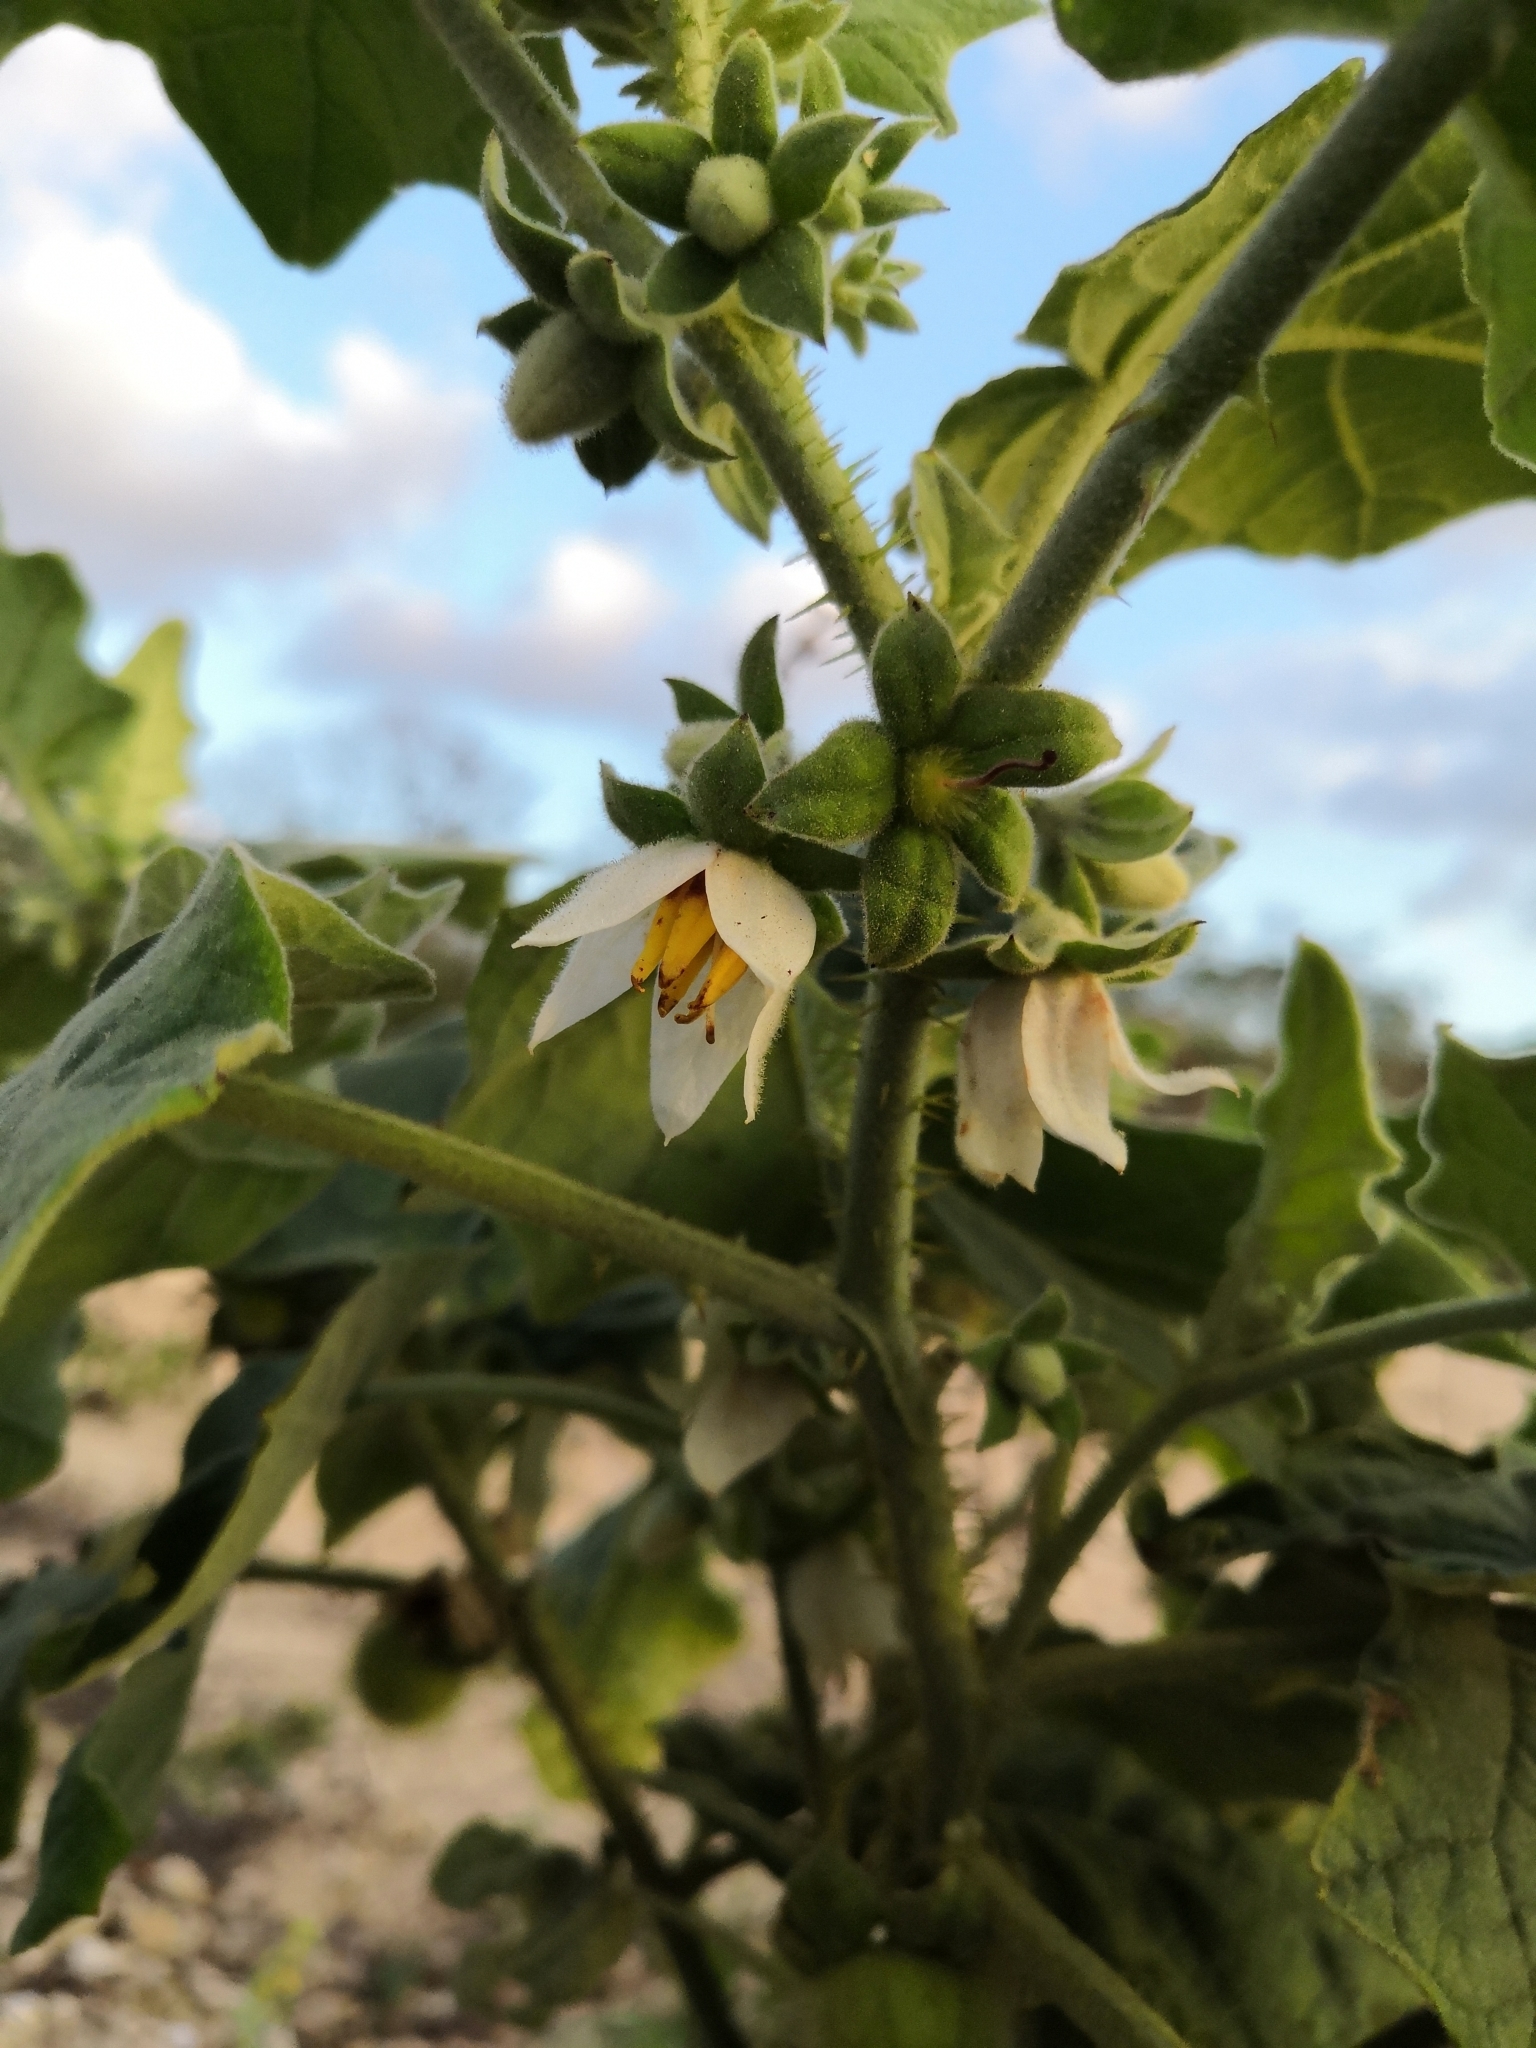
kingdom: Plantae
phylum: Tracheophyta
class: Magnoliopsida
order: Solanales
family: Solanaceae
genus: Solanum
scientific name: Solanum hirtum
